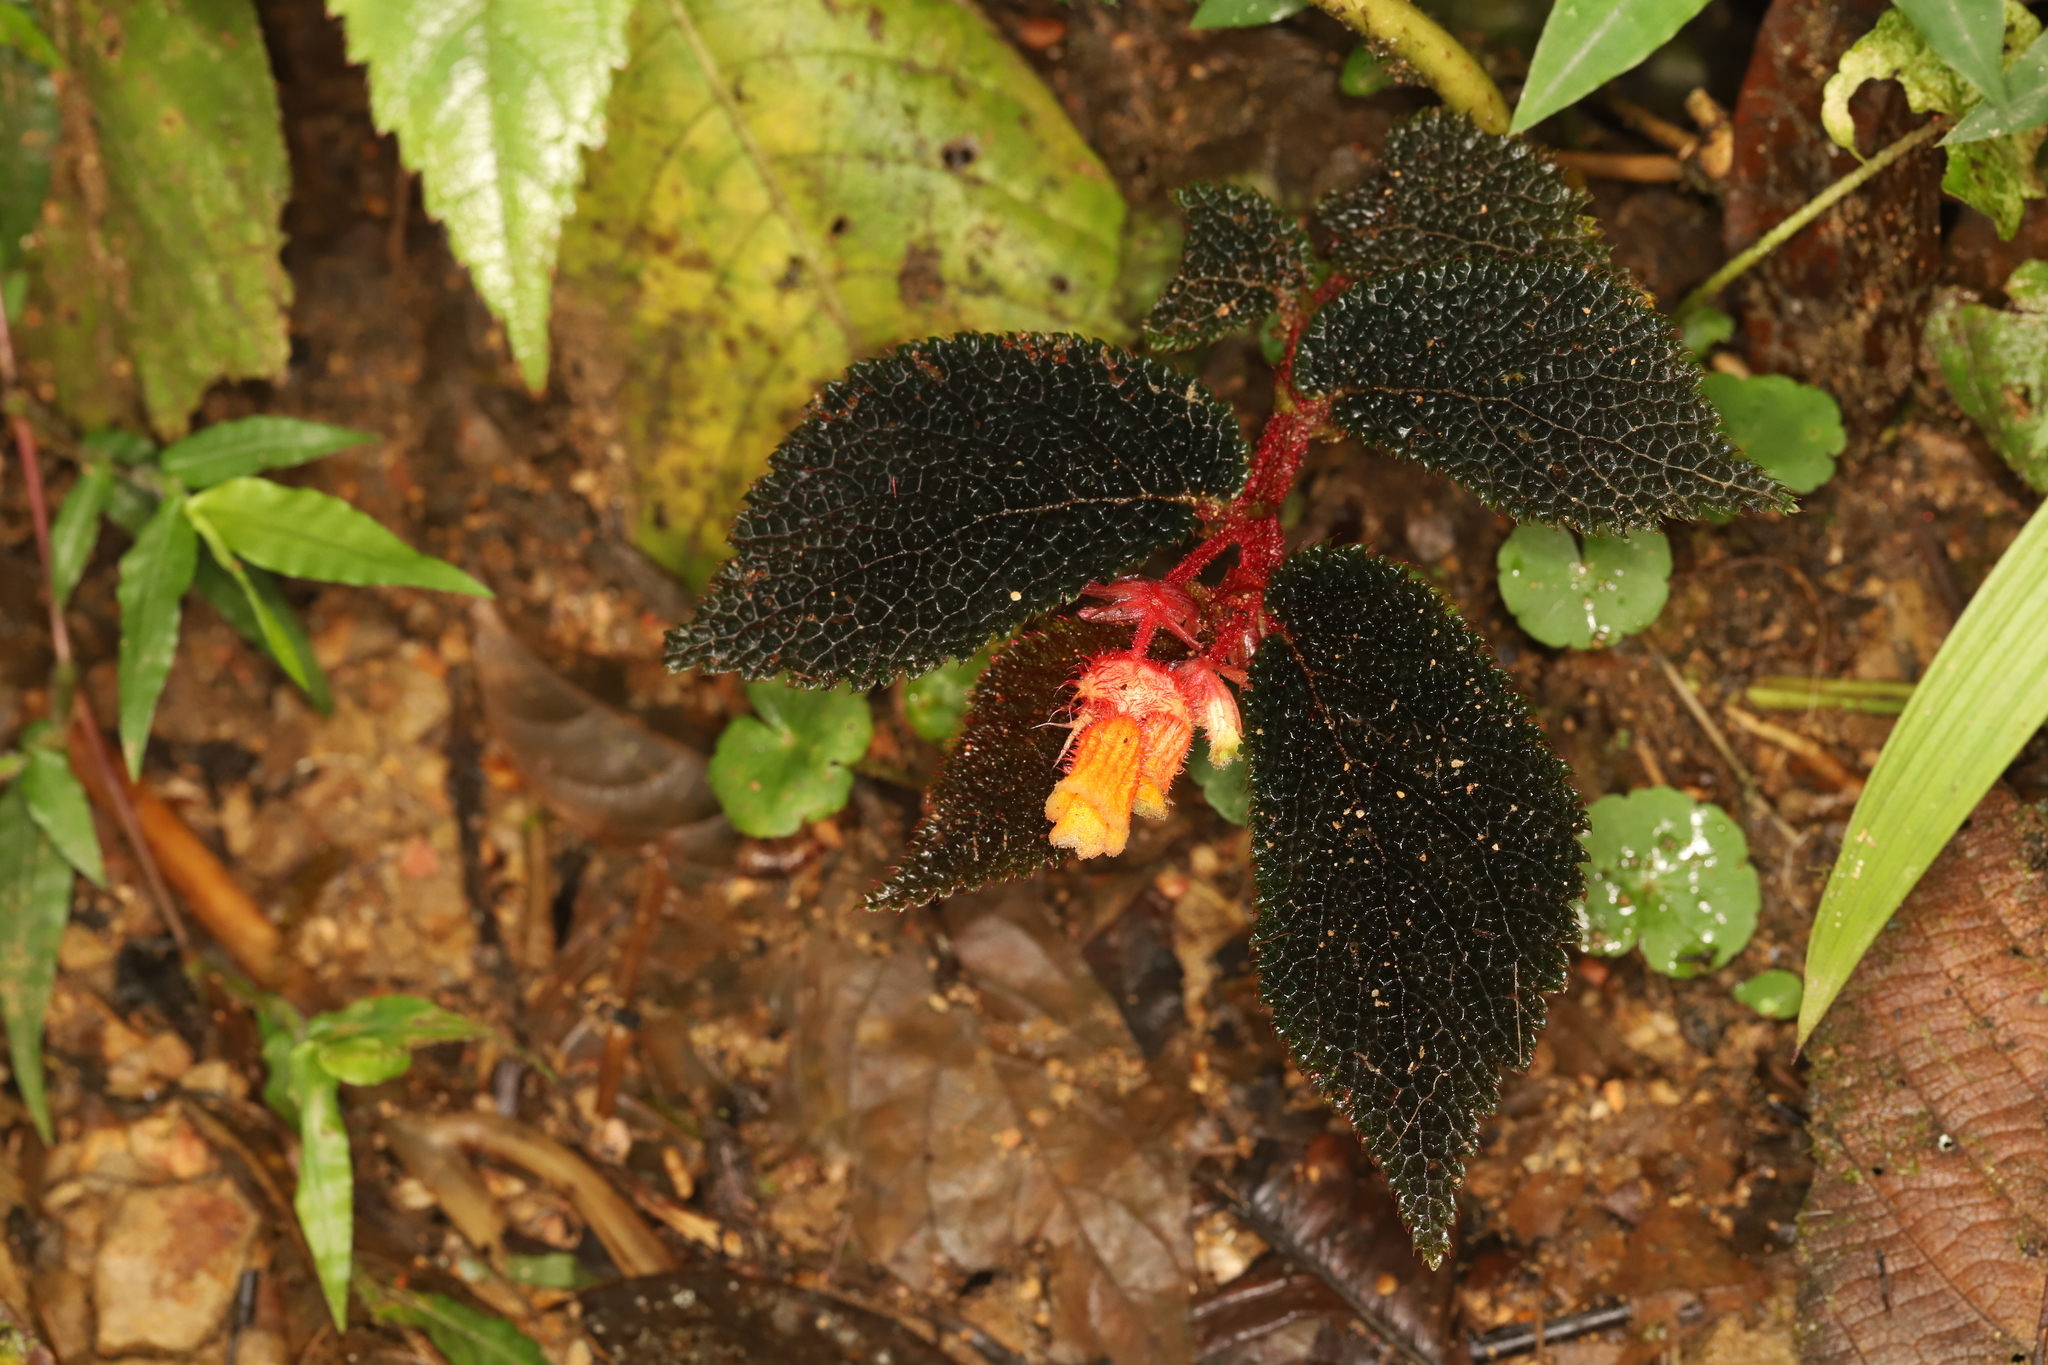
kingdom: Plantae
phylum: Tracheophyta
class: Magnoliopsida
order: Cucurbitales
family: Begoniaceae
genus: Begonia
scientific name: Begonia lehmannii
